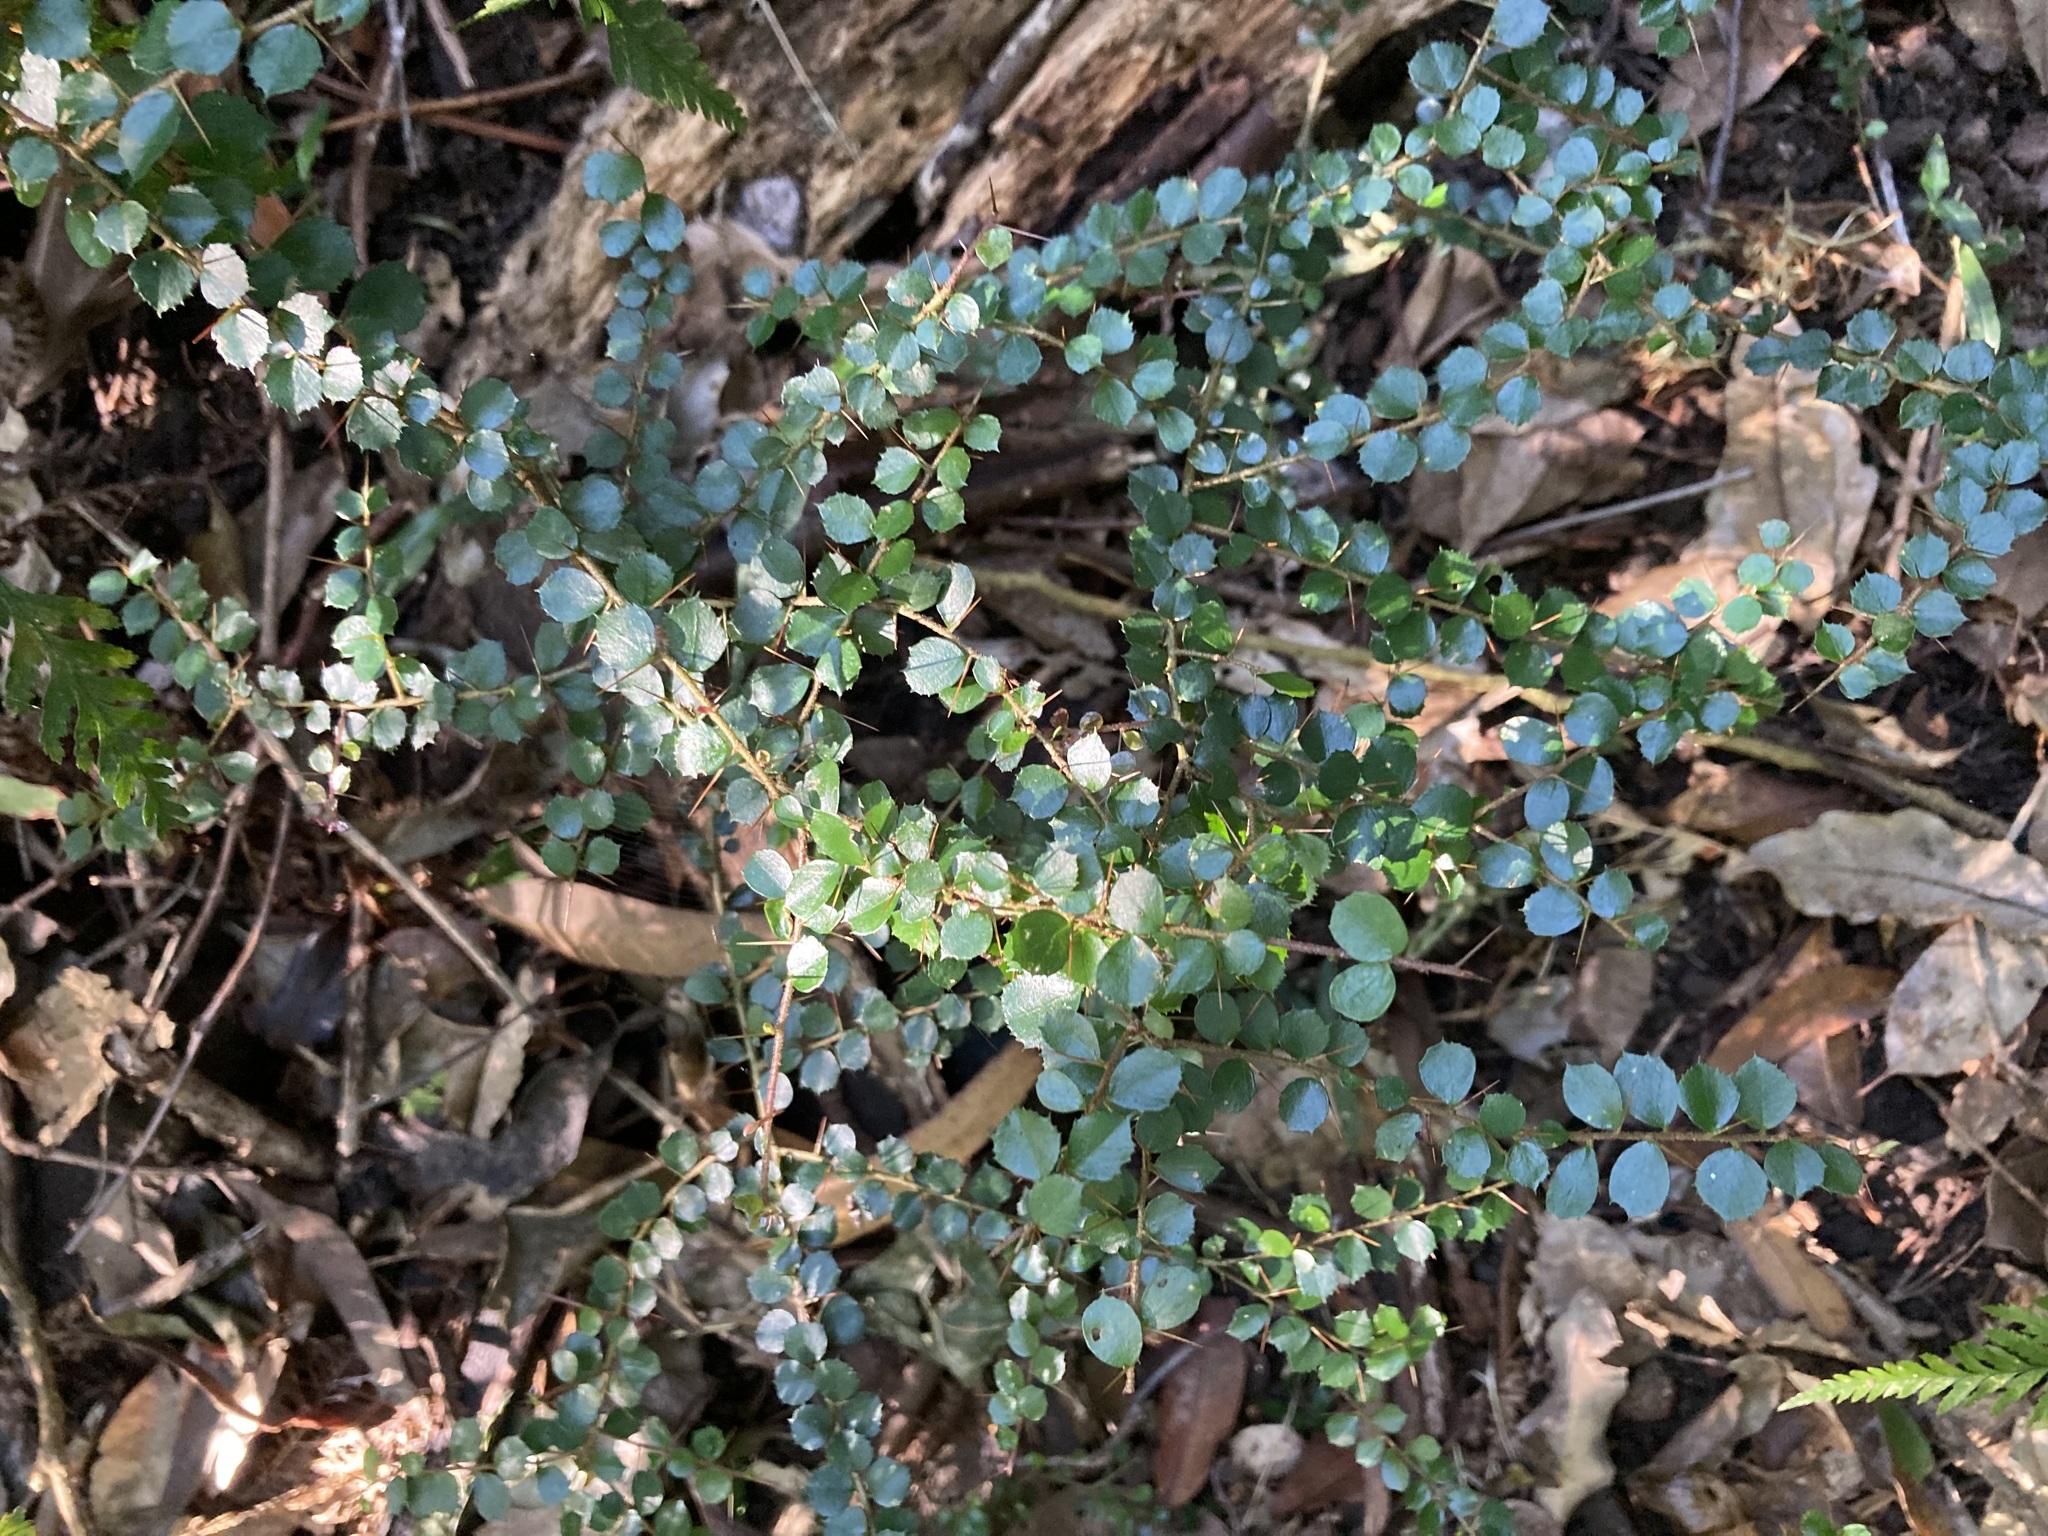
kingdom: Plantae
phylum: Tracheophyta
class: Magnoliopsida
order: Apiales
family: Pittosporaceae
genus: Pittosporum
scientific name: Pittosporum multiflorum
